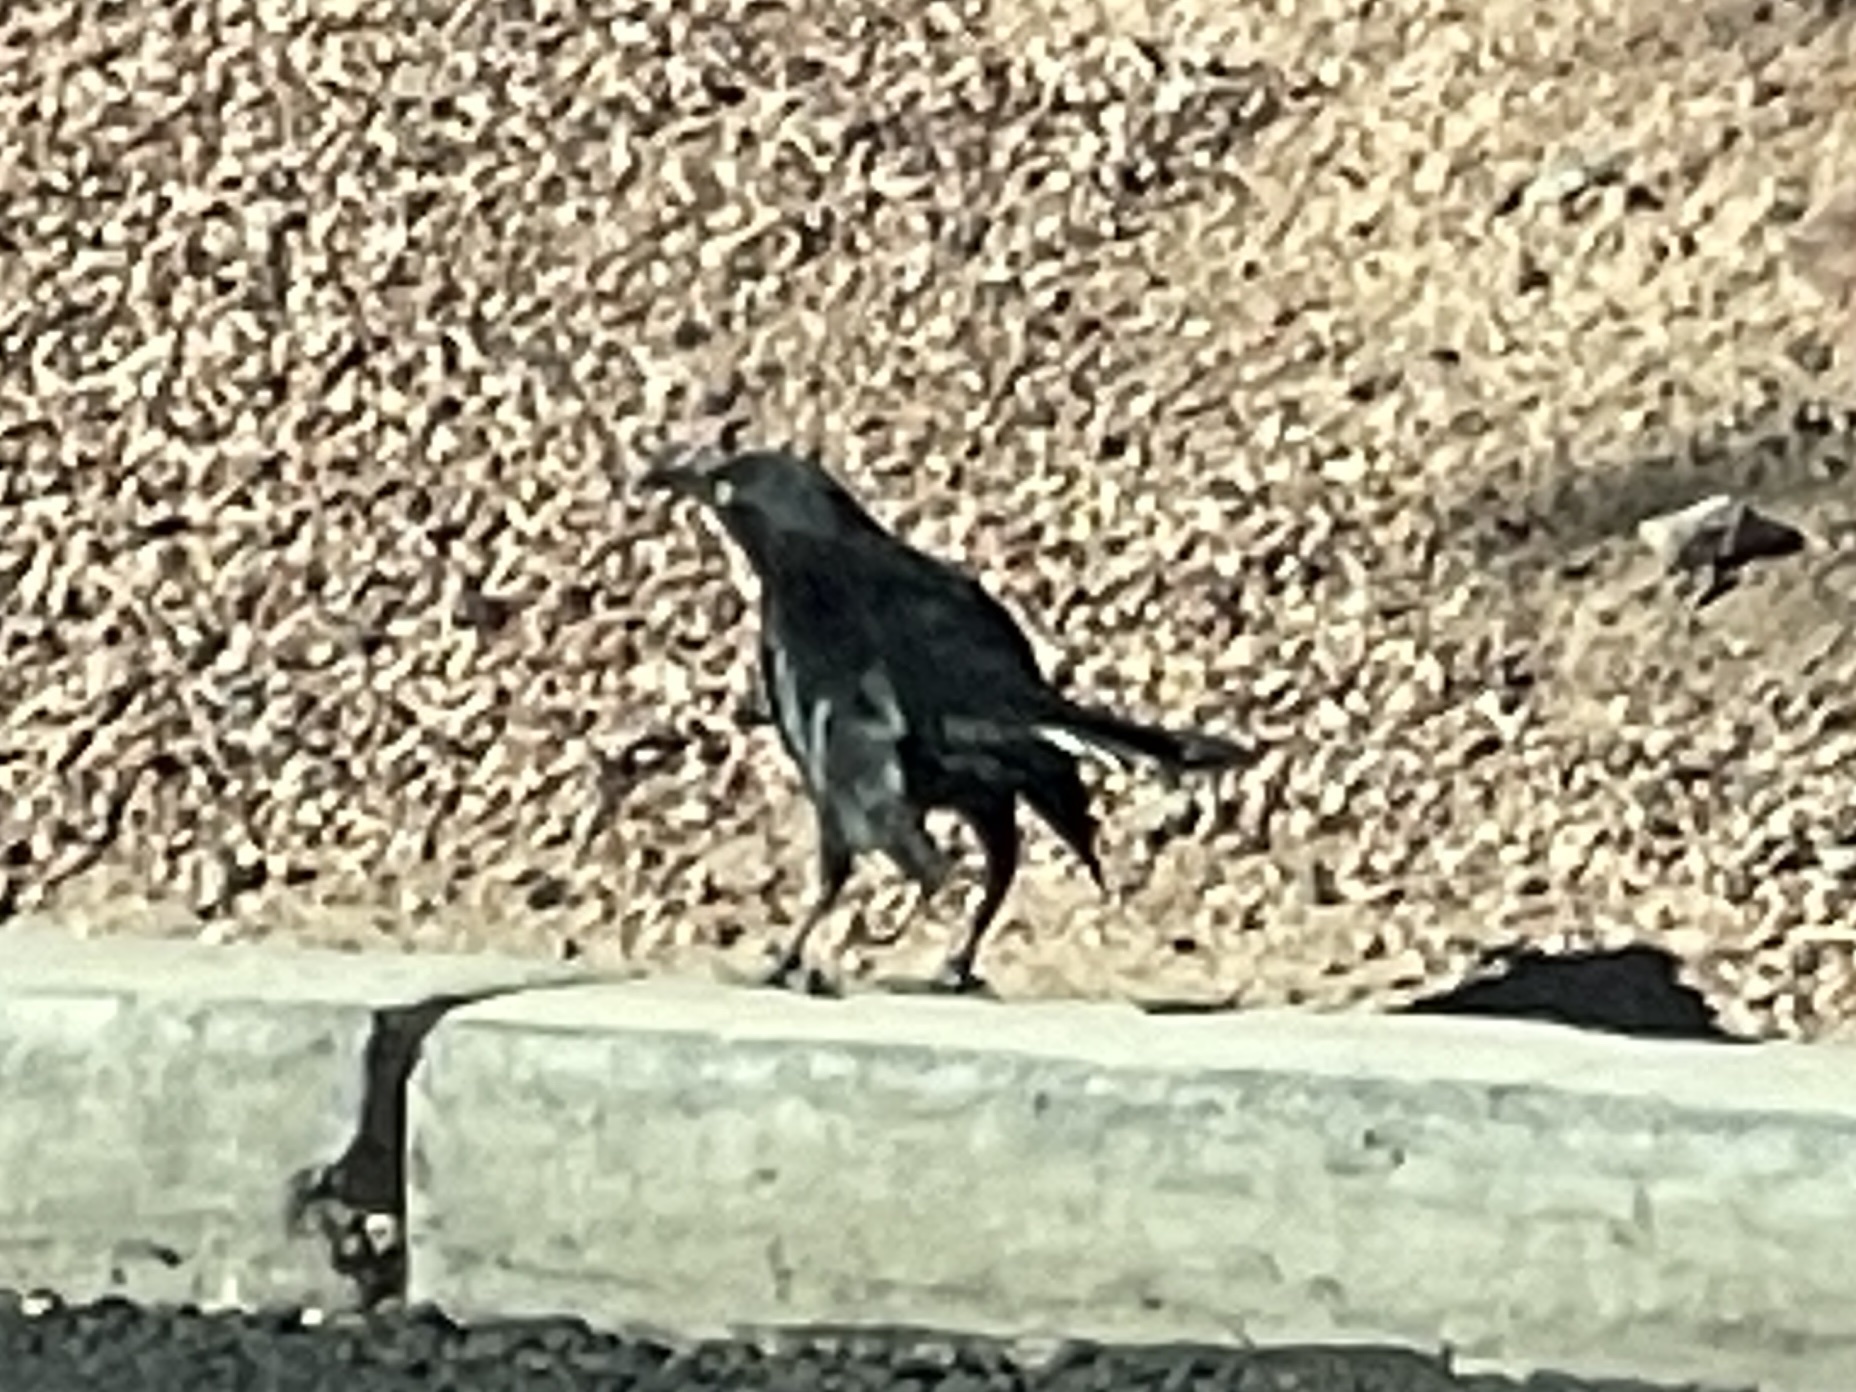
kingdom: Animalia
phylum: Chordata
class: Aves
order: Passeriformes
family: Icteridae
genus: Quiscalus
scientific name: Quiscalus mexicanus
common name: Great-tailed grackle
